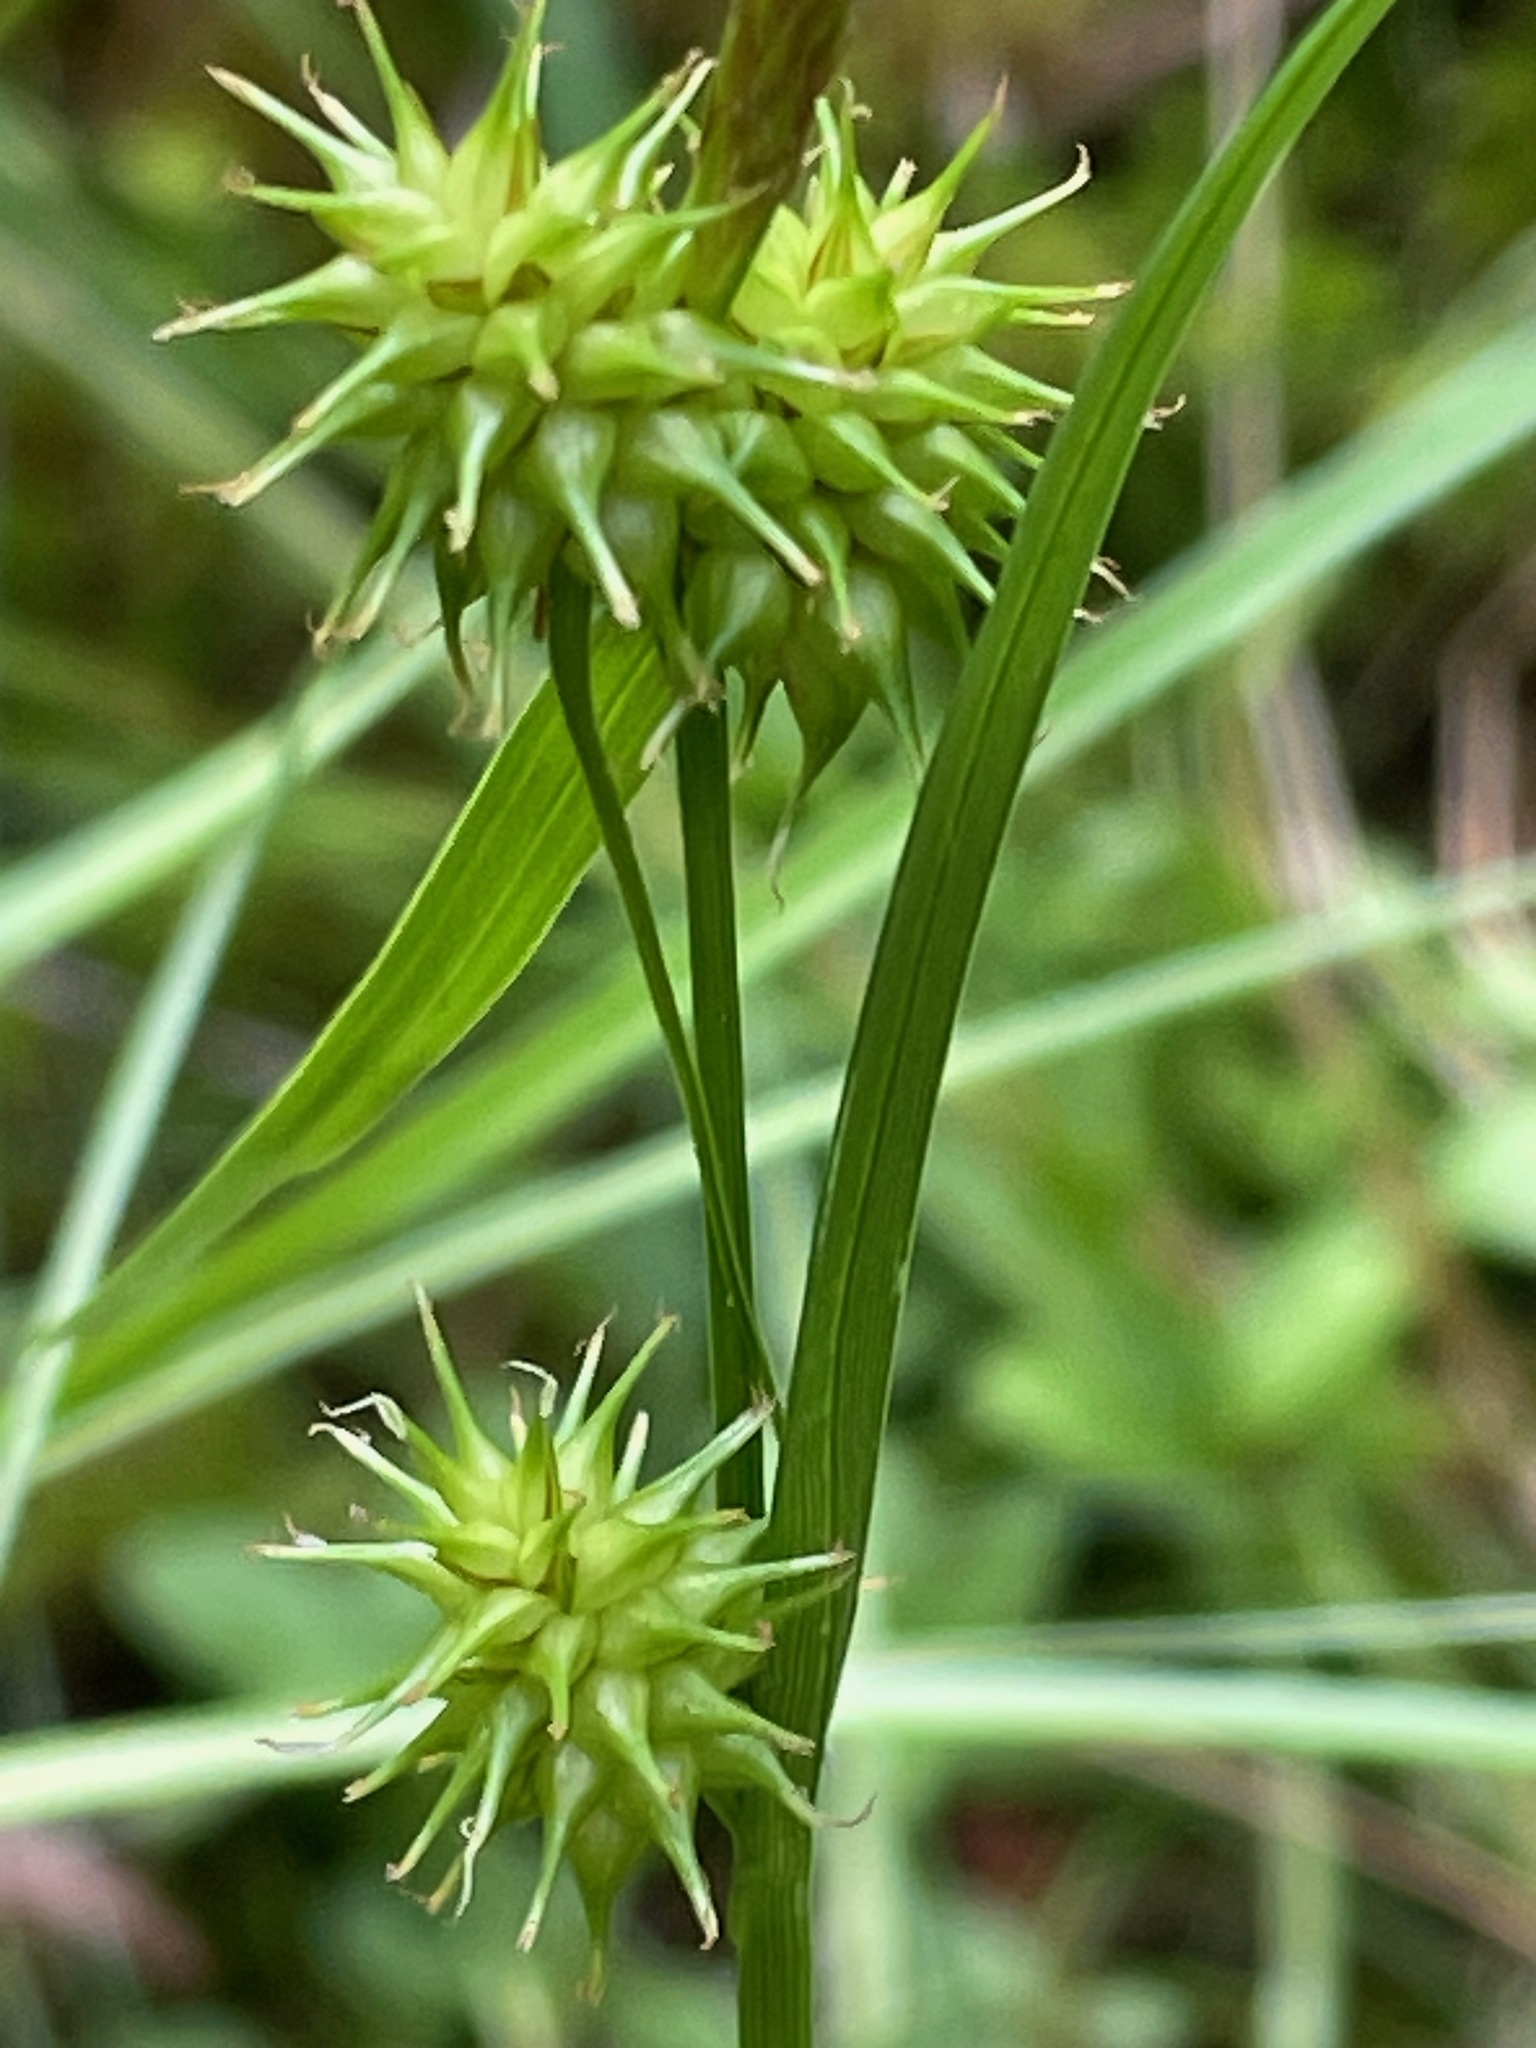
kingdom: Plantae
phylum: Tracheophyta
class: Liliopsida
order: Poales
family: Cyperaceae
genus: Carex
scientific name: Carex flava
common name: Large yellow-sedge
